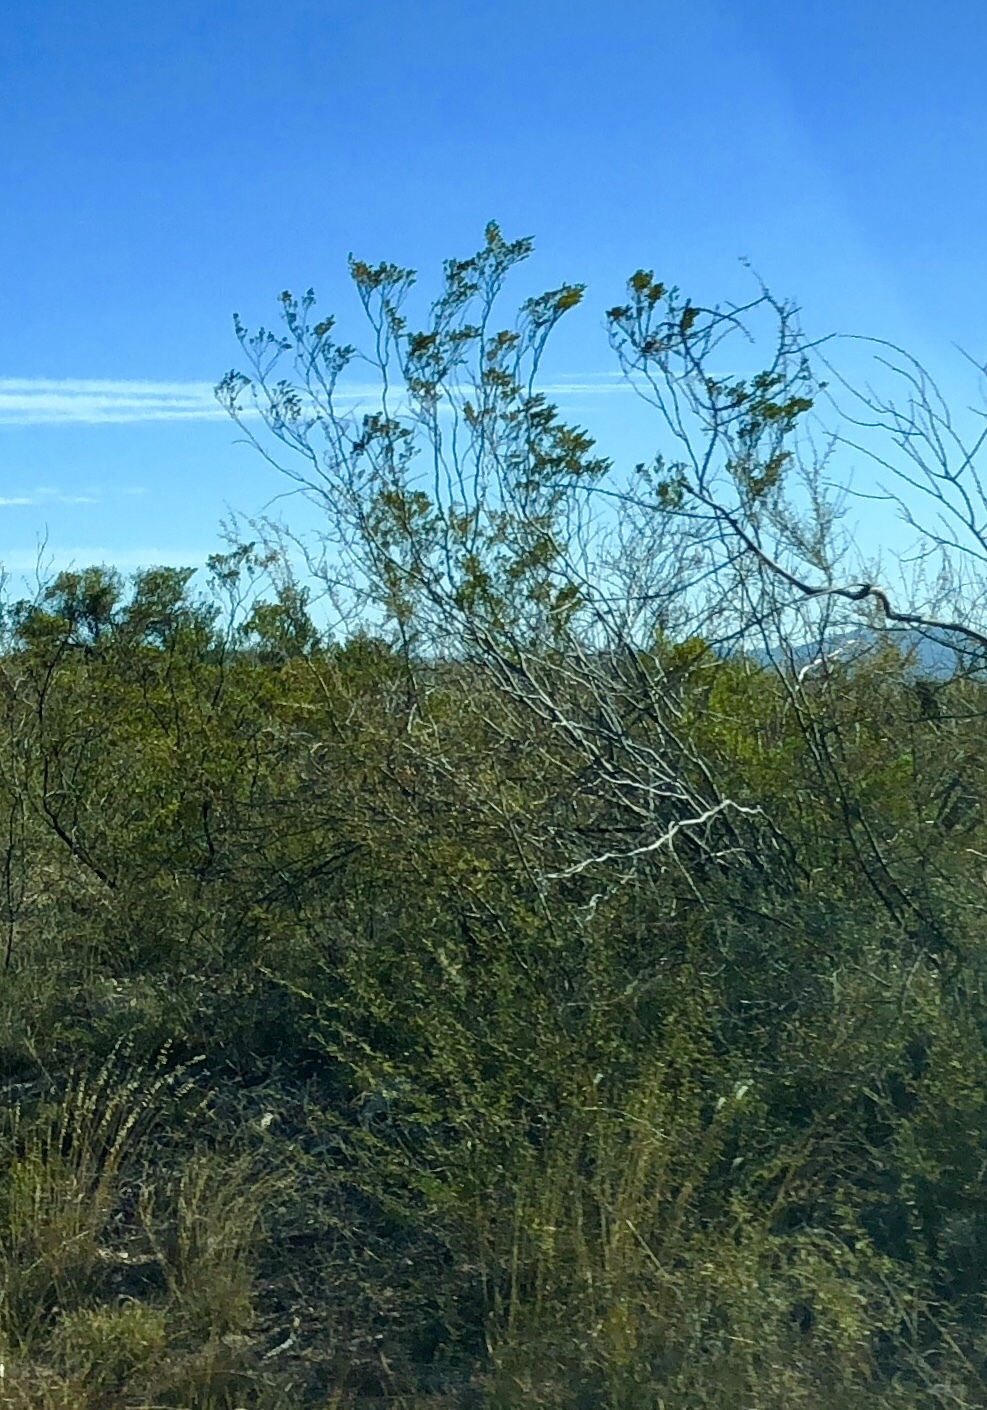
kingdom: Plantae
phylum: Tracheophyta
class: Magnoliopsida
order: Zygophyllales
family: Zygophyllaceae
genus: Larrea
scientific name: Larrea tridentata
